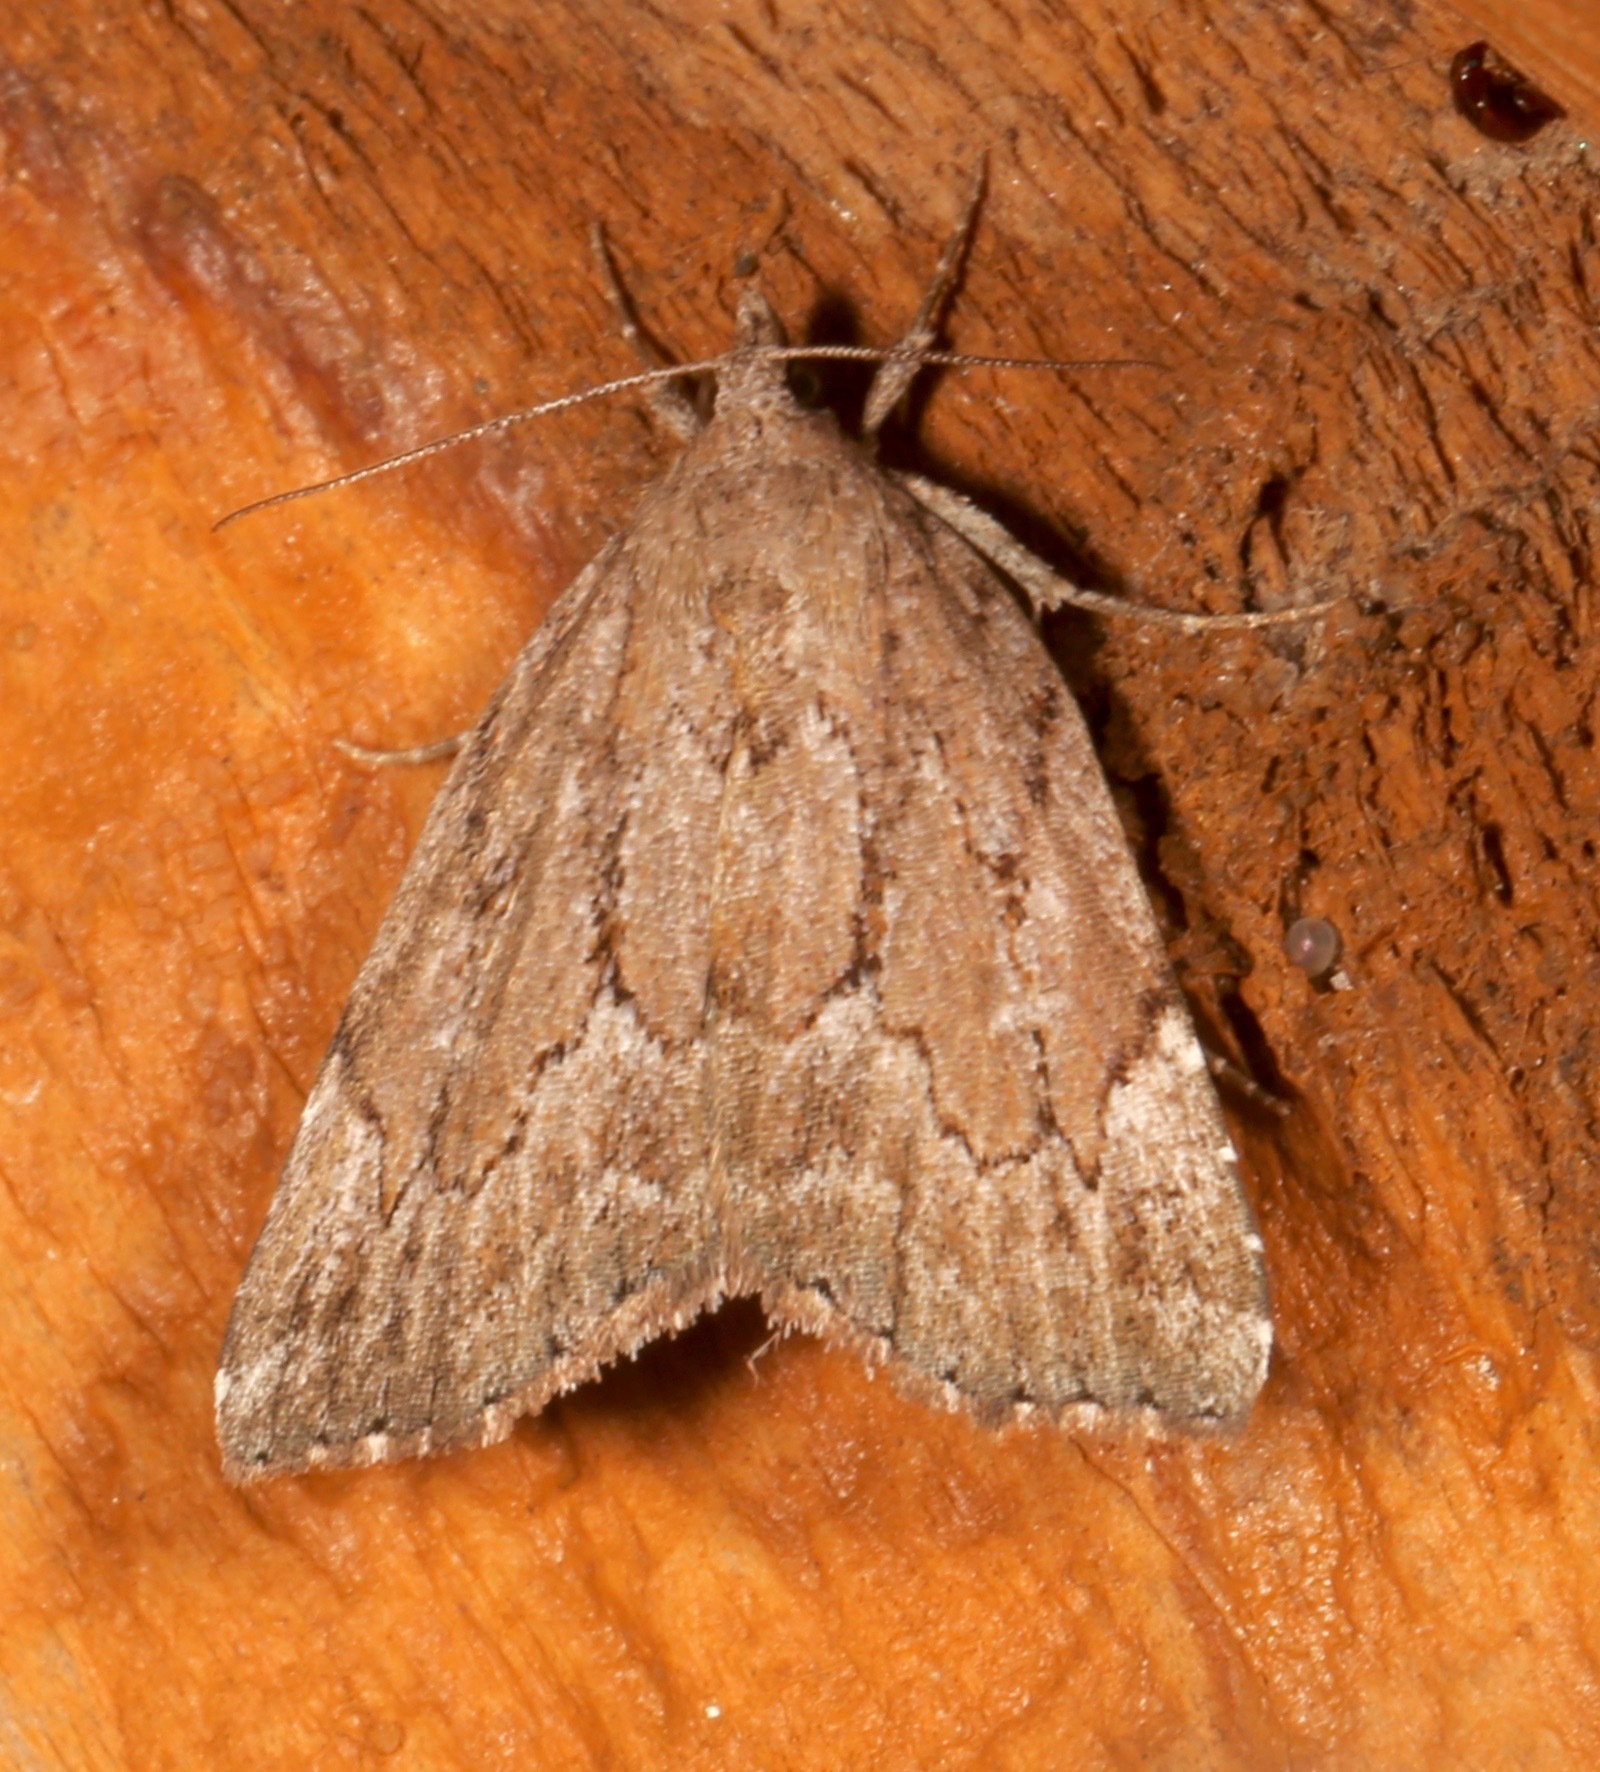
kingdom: Animalia
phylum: Arthropoda
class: Insecta
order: Lepidoptera
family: Erebidae
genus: Cutina
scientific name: Cutina albopunctella
